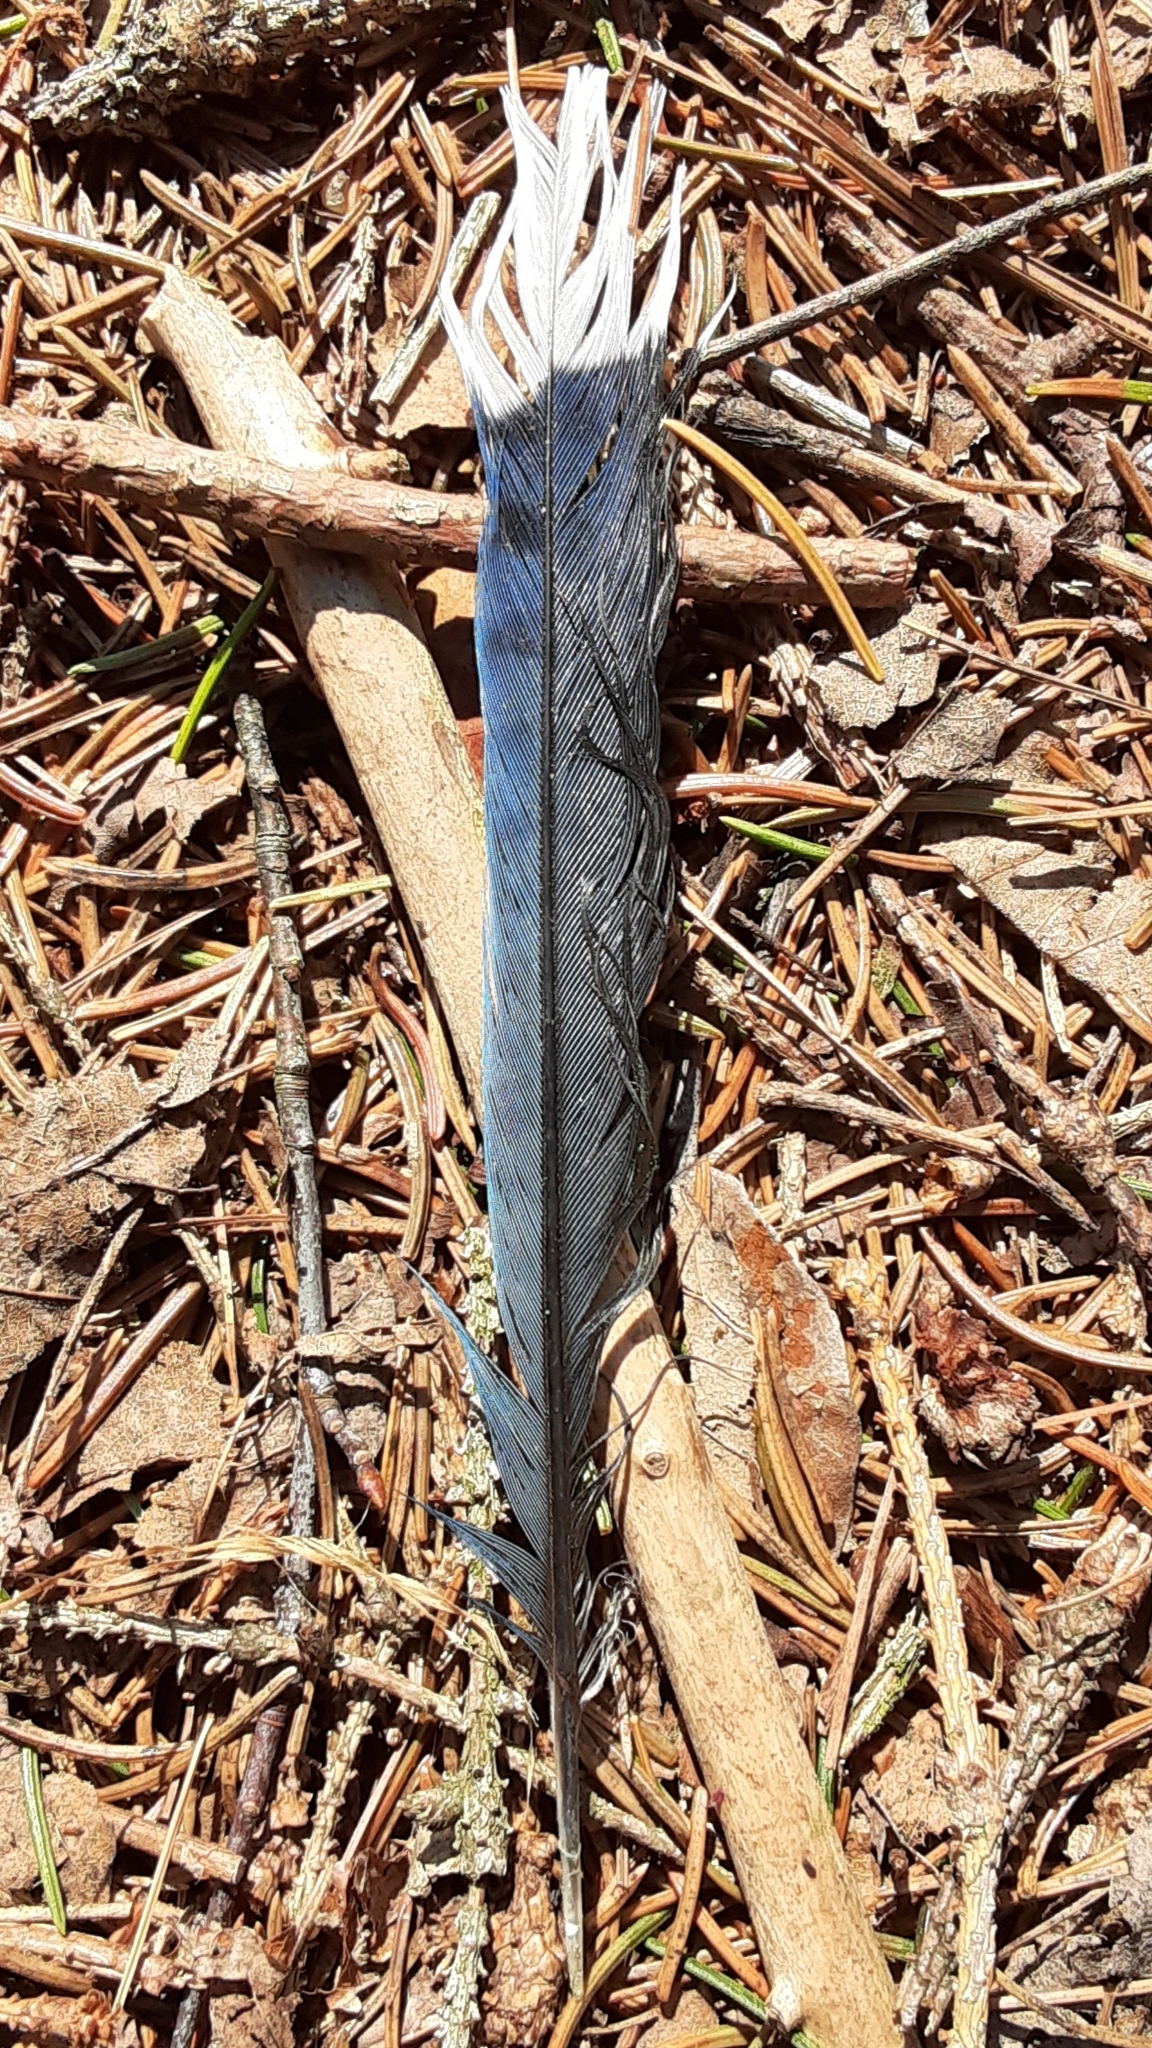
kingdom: Animalia
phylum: Chordata
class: Aves
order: Passeriformes
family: Corvidae
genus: Cyanocitta
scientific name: Cyanocitta cristata
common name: Blue jay
